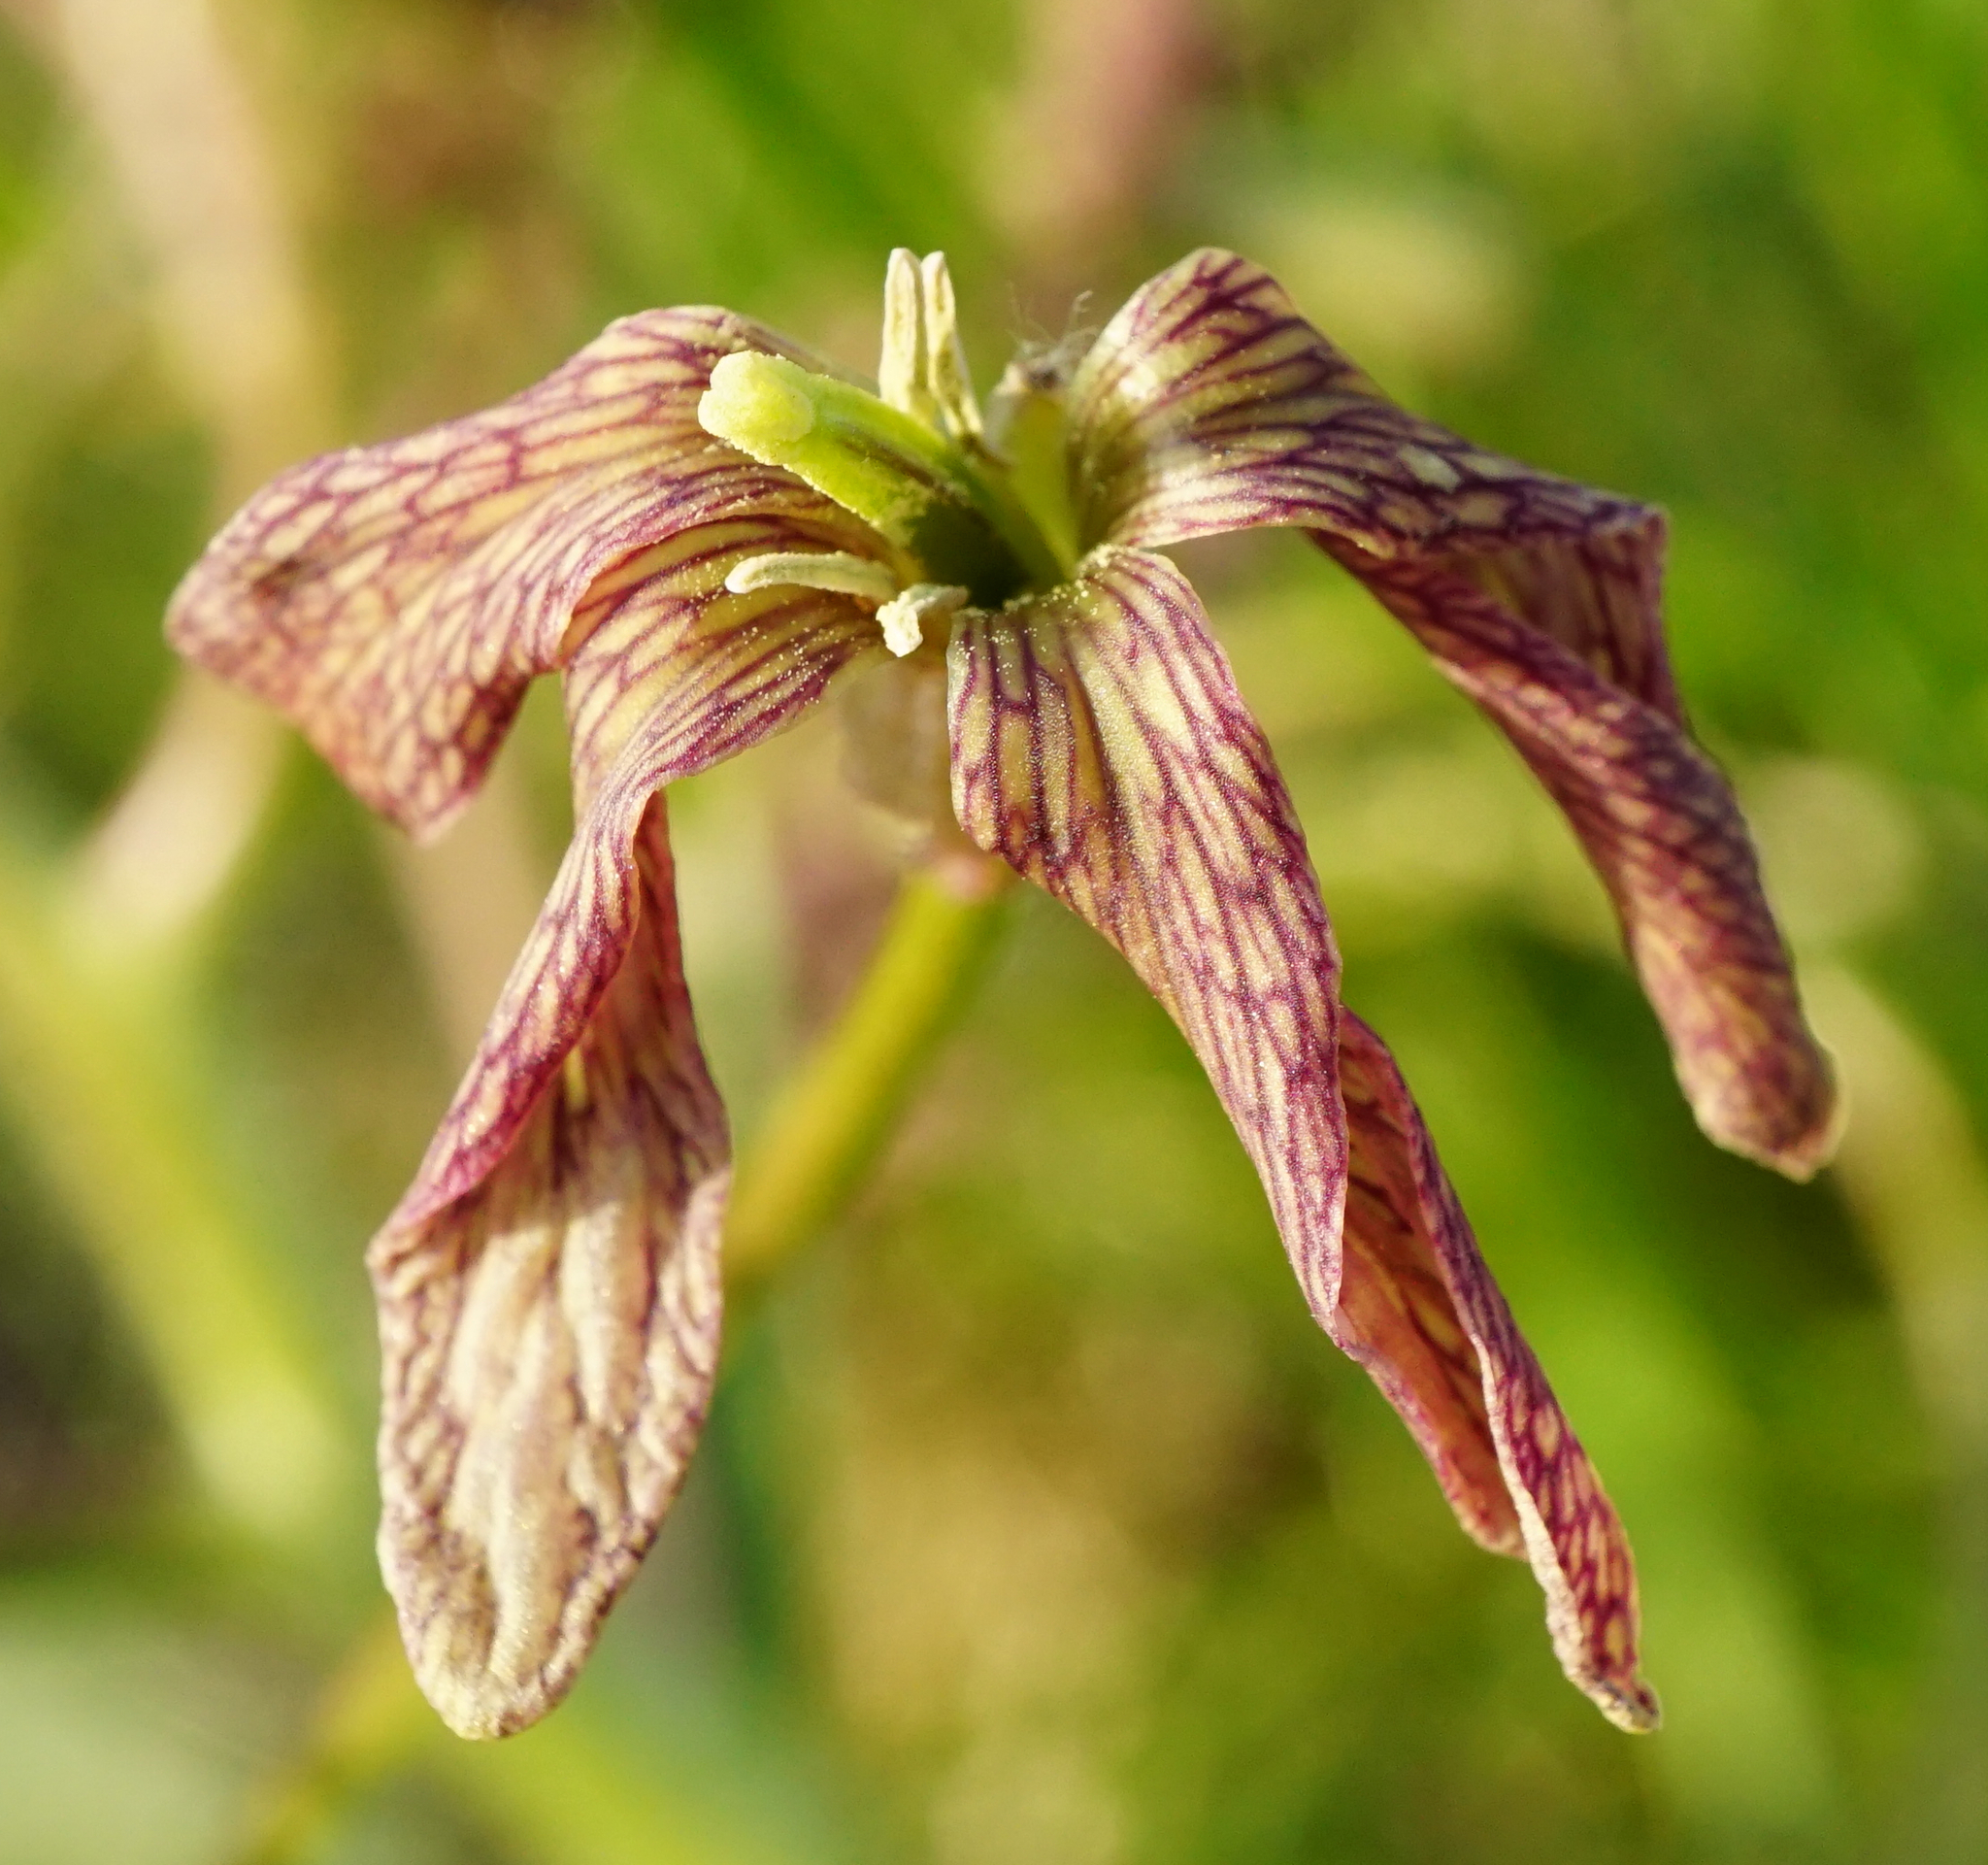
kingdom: Plantae
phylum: Tracheophyta
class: Magnoliopsida
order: Brassicales
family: Brassicaceae
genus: Hesperis
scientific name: Hesperis tristis
